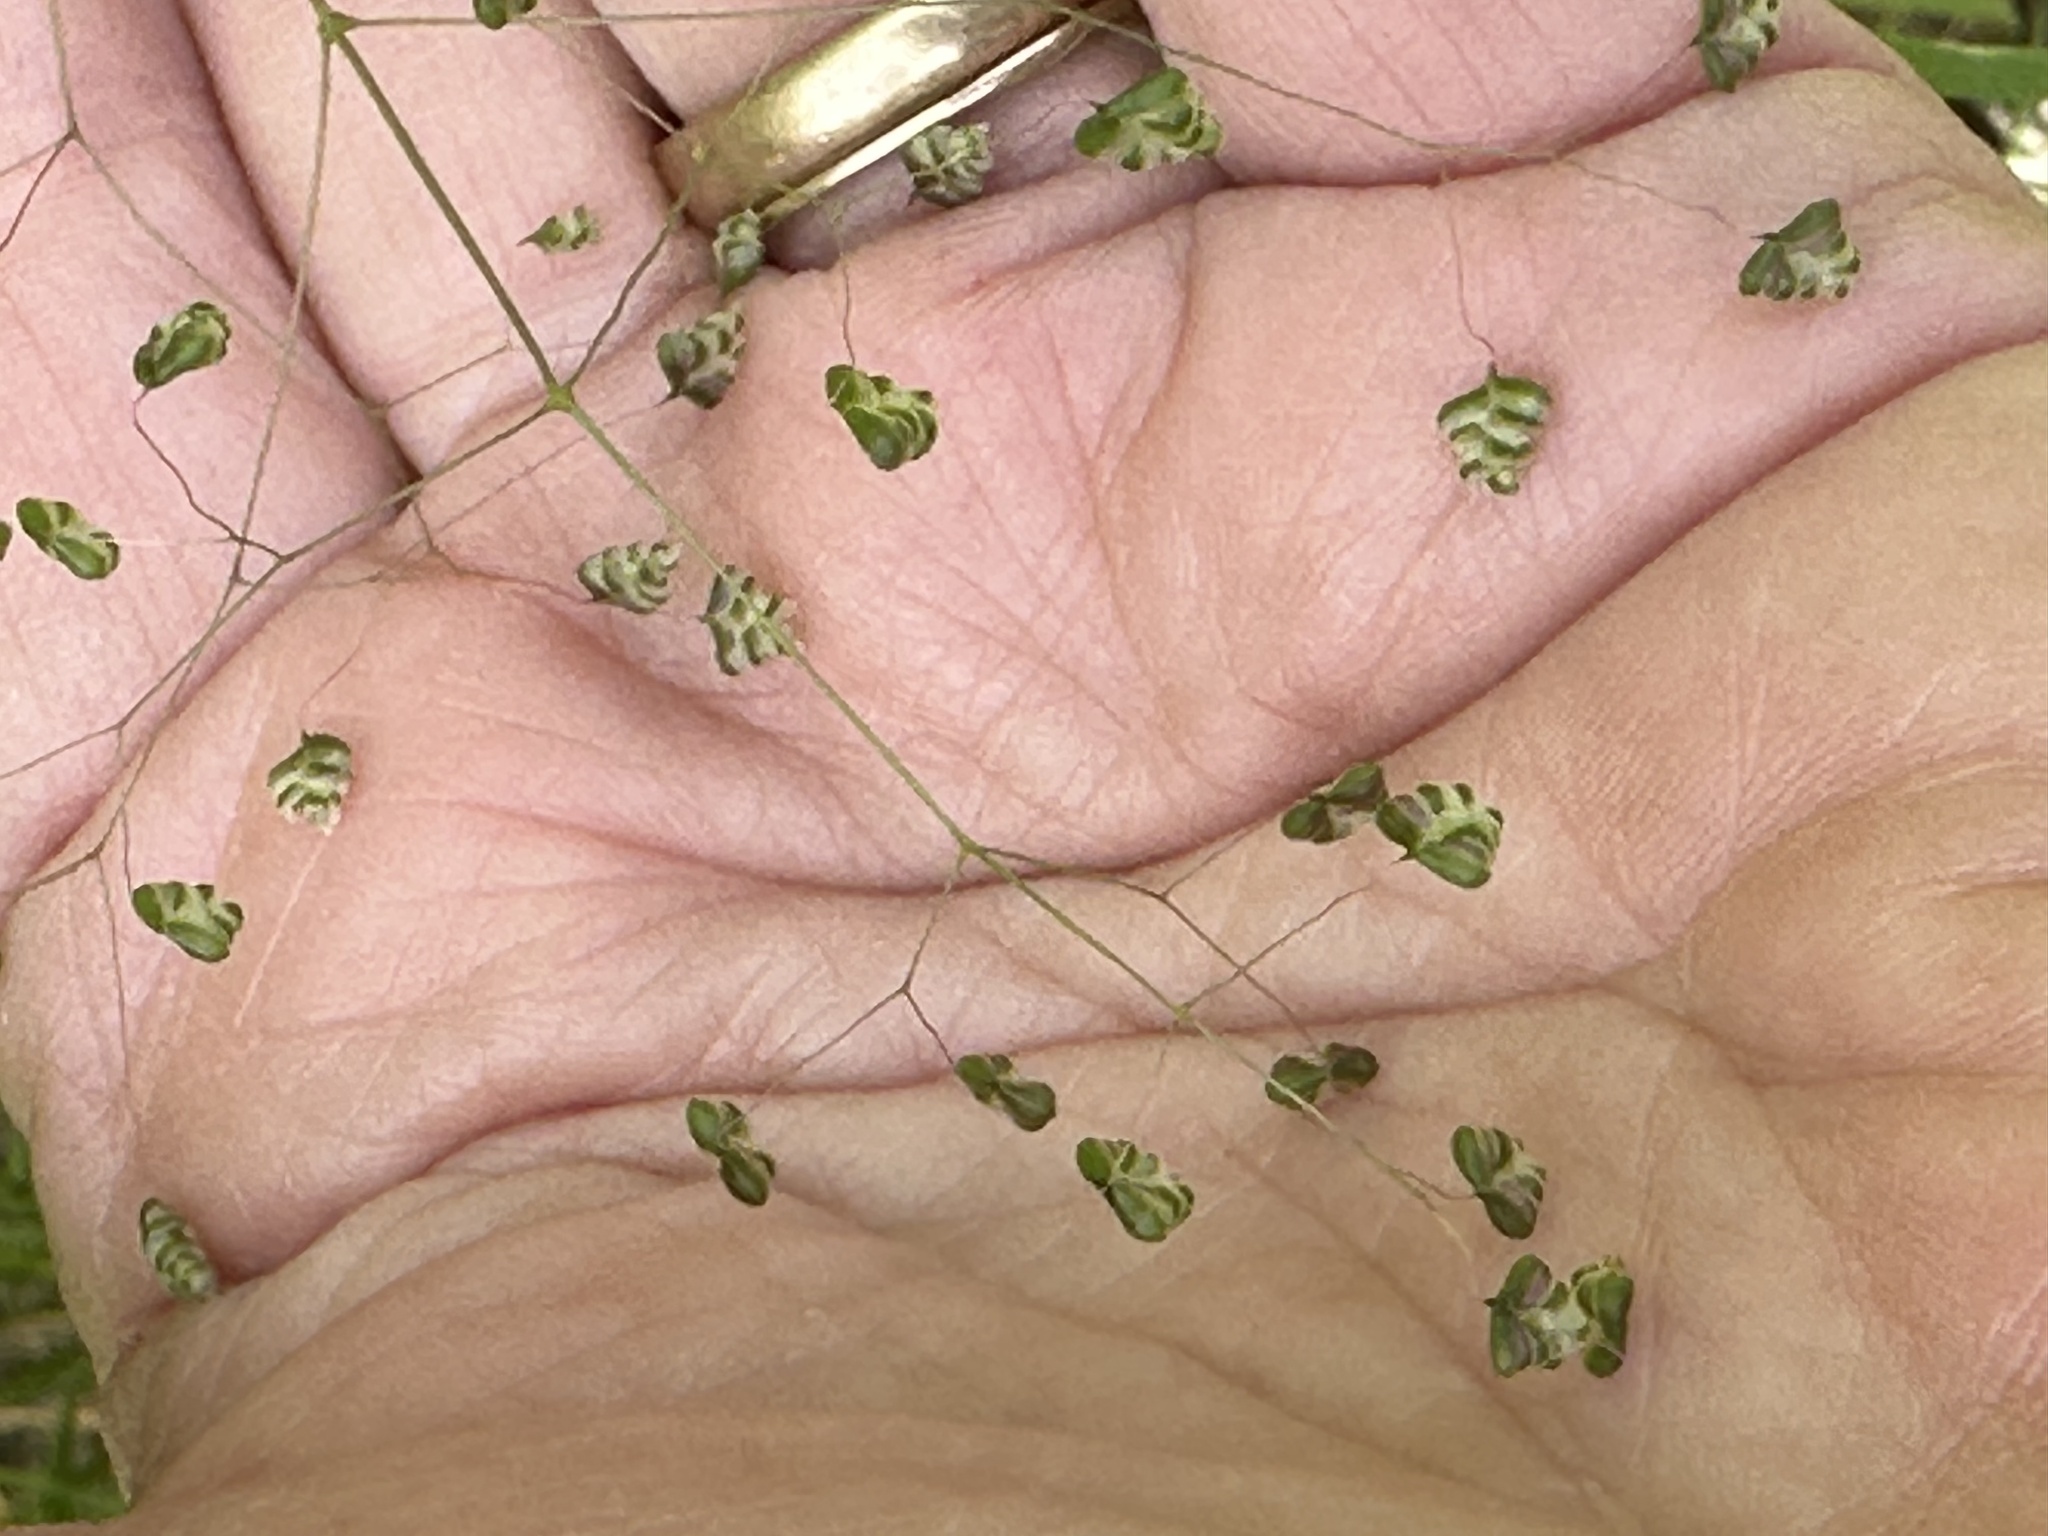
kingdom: Plantae
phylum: Tracheophyta
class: Liliopsida
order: Poales
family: Poaceae
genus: Briza
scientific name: Briza minor
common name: Lesser quaking-grass
